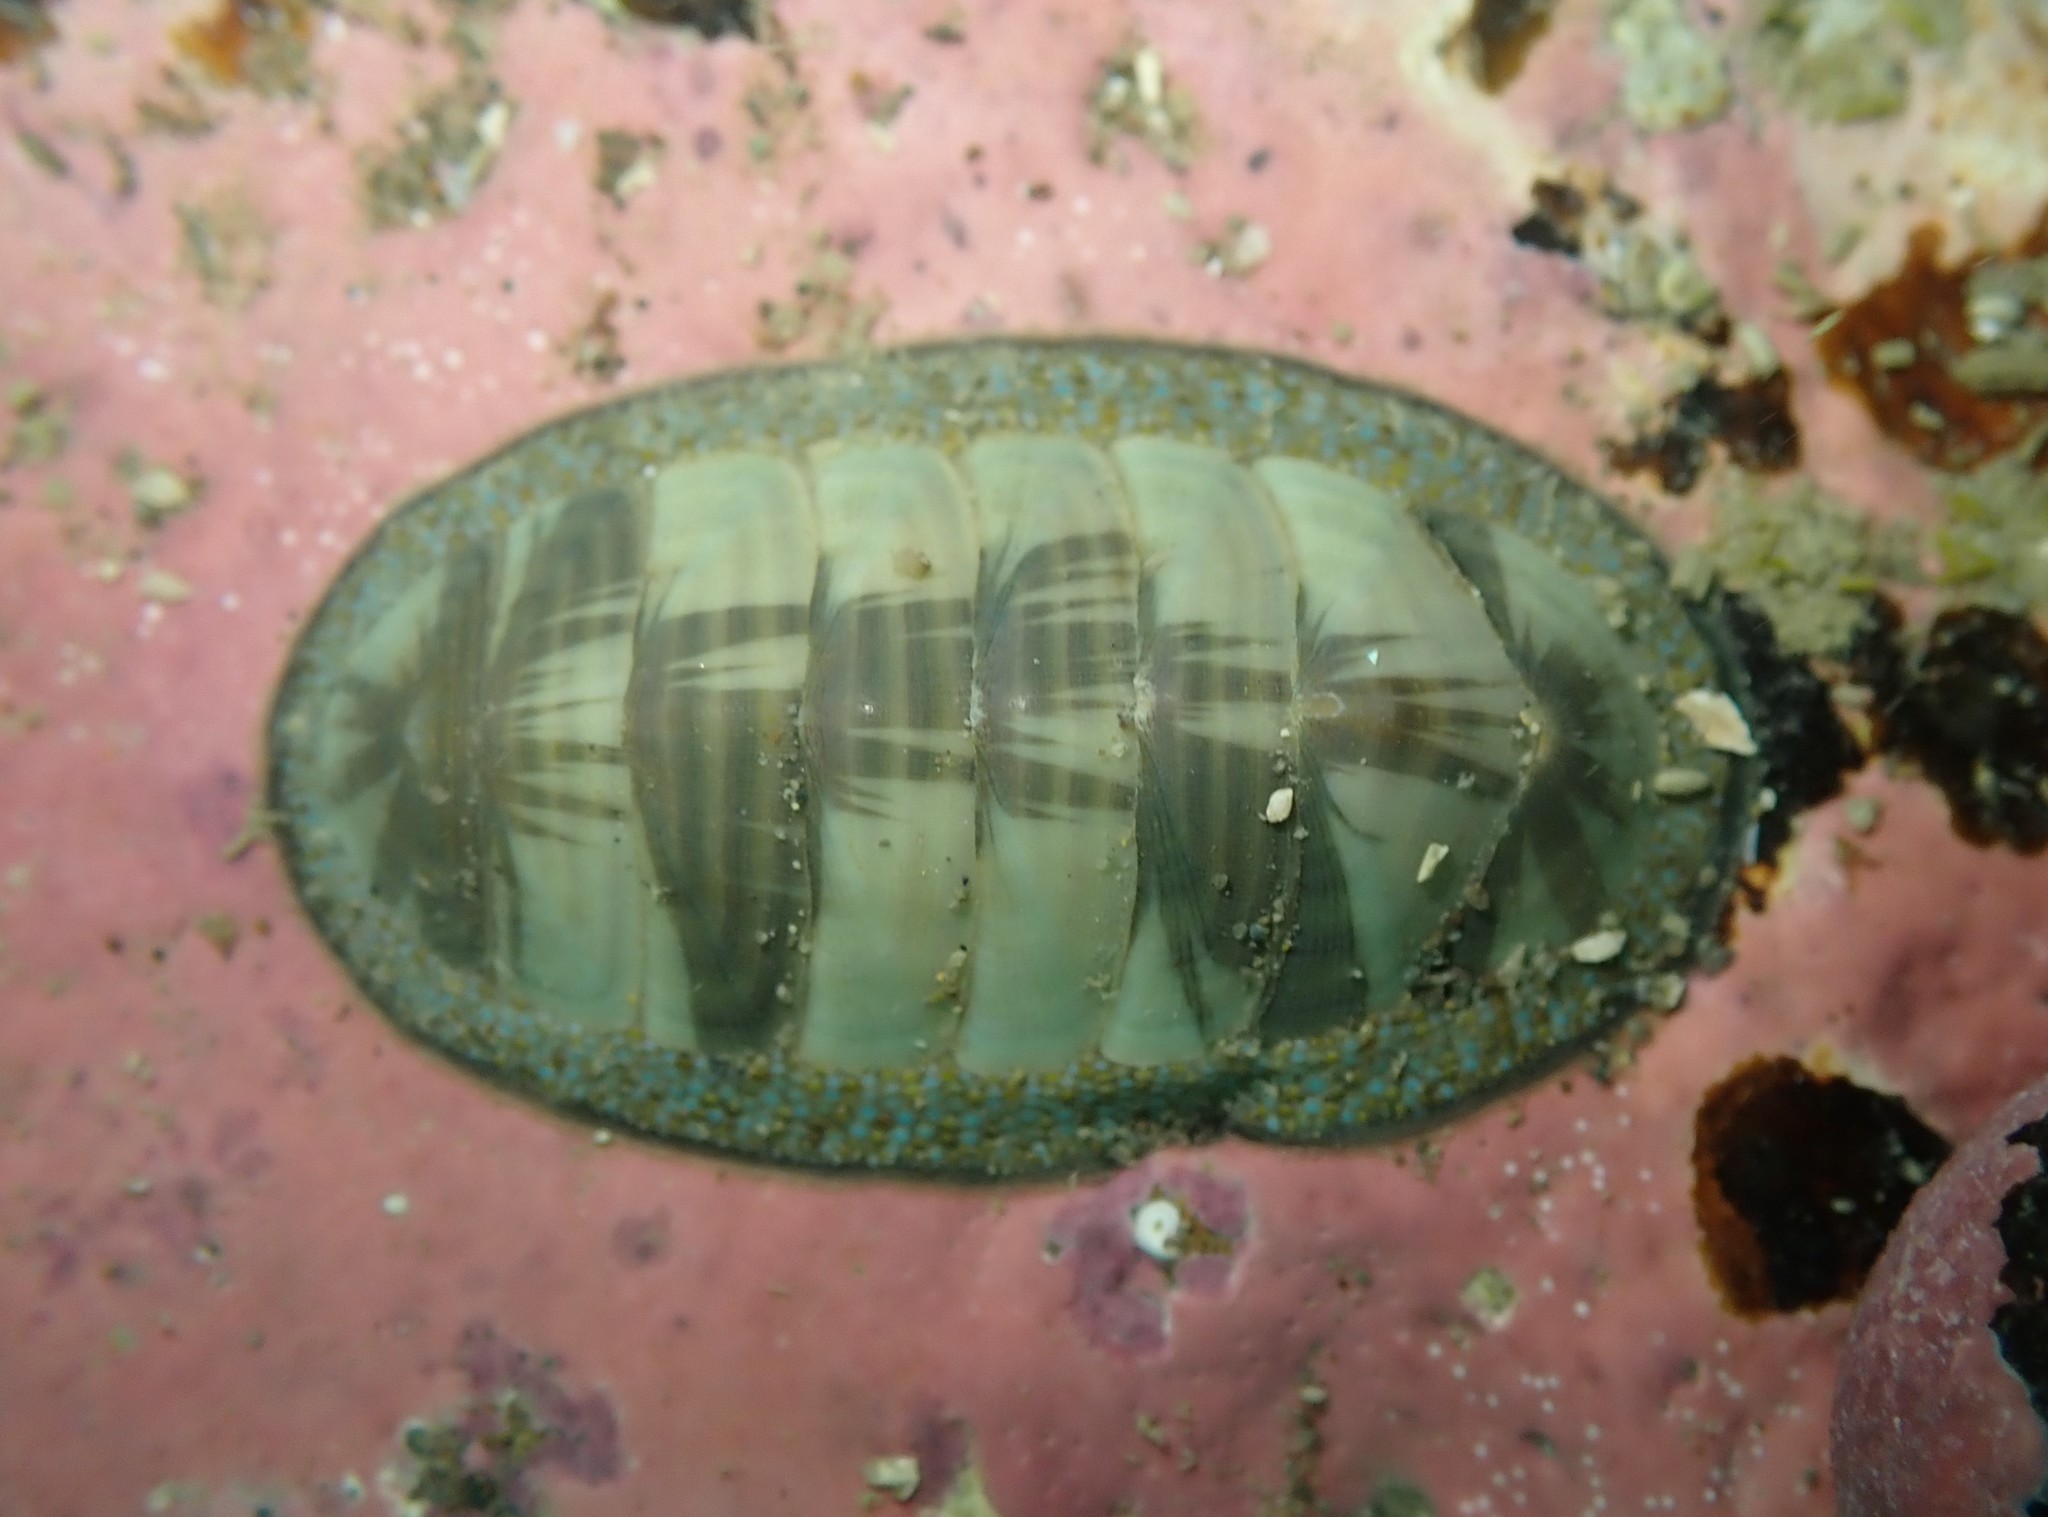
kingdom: Animalia
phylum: Mollusca
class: Polyplacophora
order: Chitonida
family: Chitonidae
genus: Chiton
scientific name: Chiton glaucus
